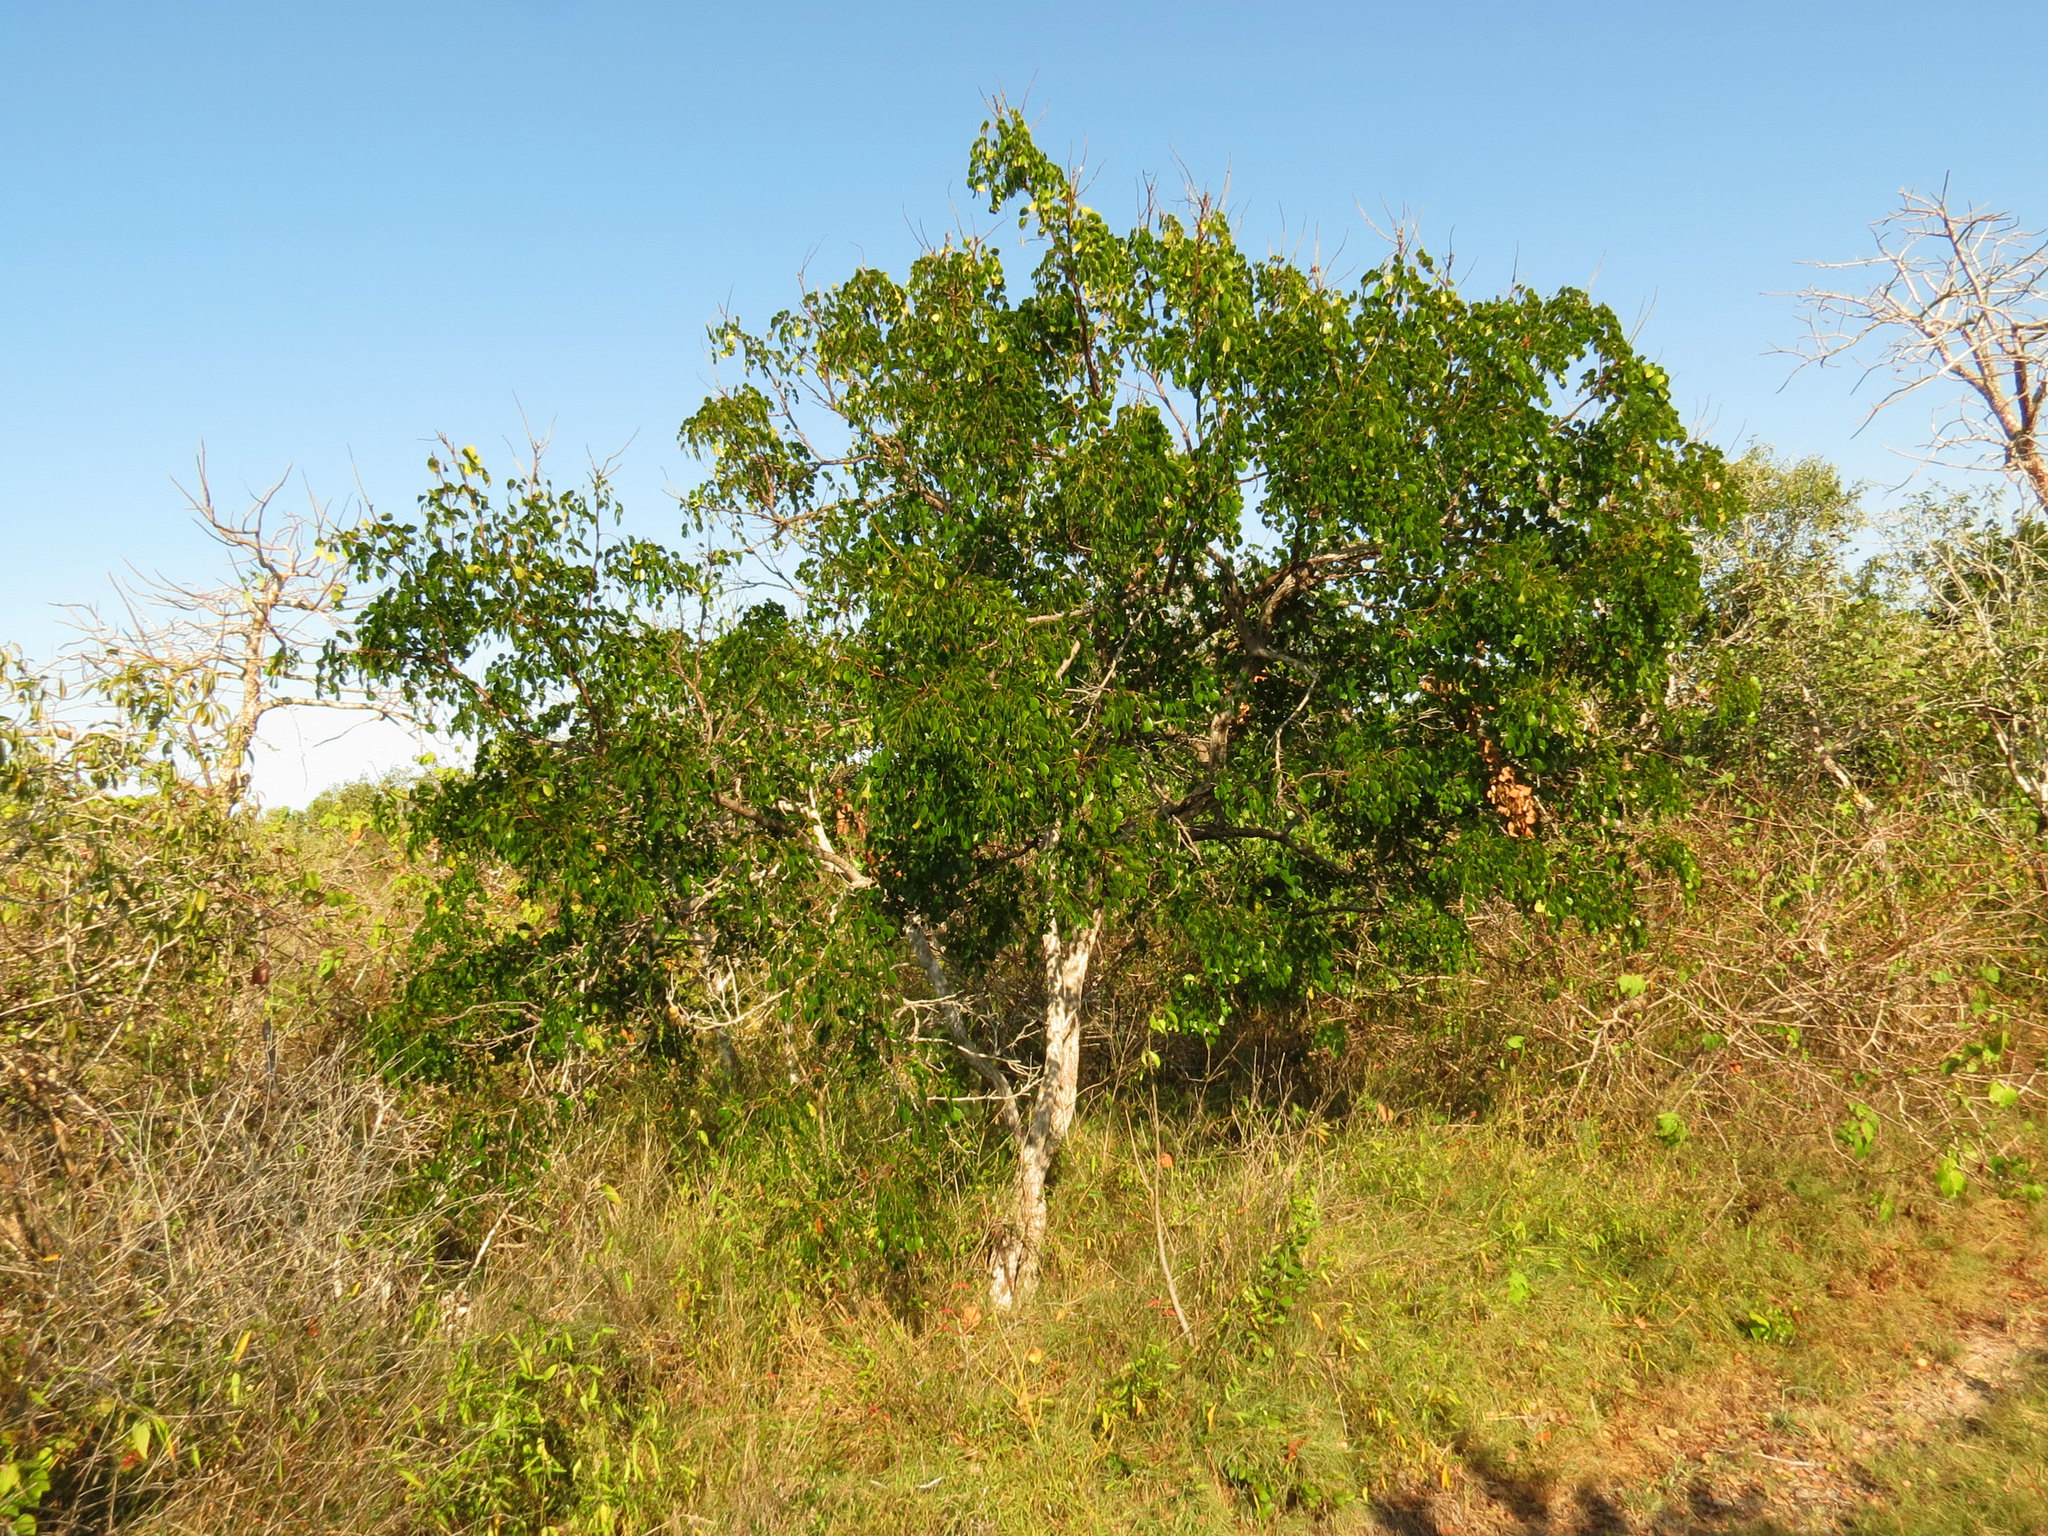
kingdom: Plantae
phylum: Tracheophyta
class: Magnoliopsida
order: Fabales
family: Fabaceae
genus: Tara
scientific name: Tara vesicaria
